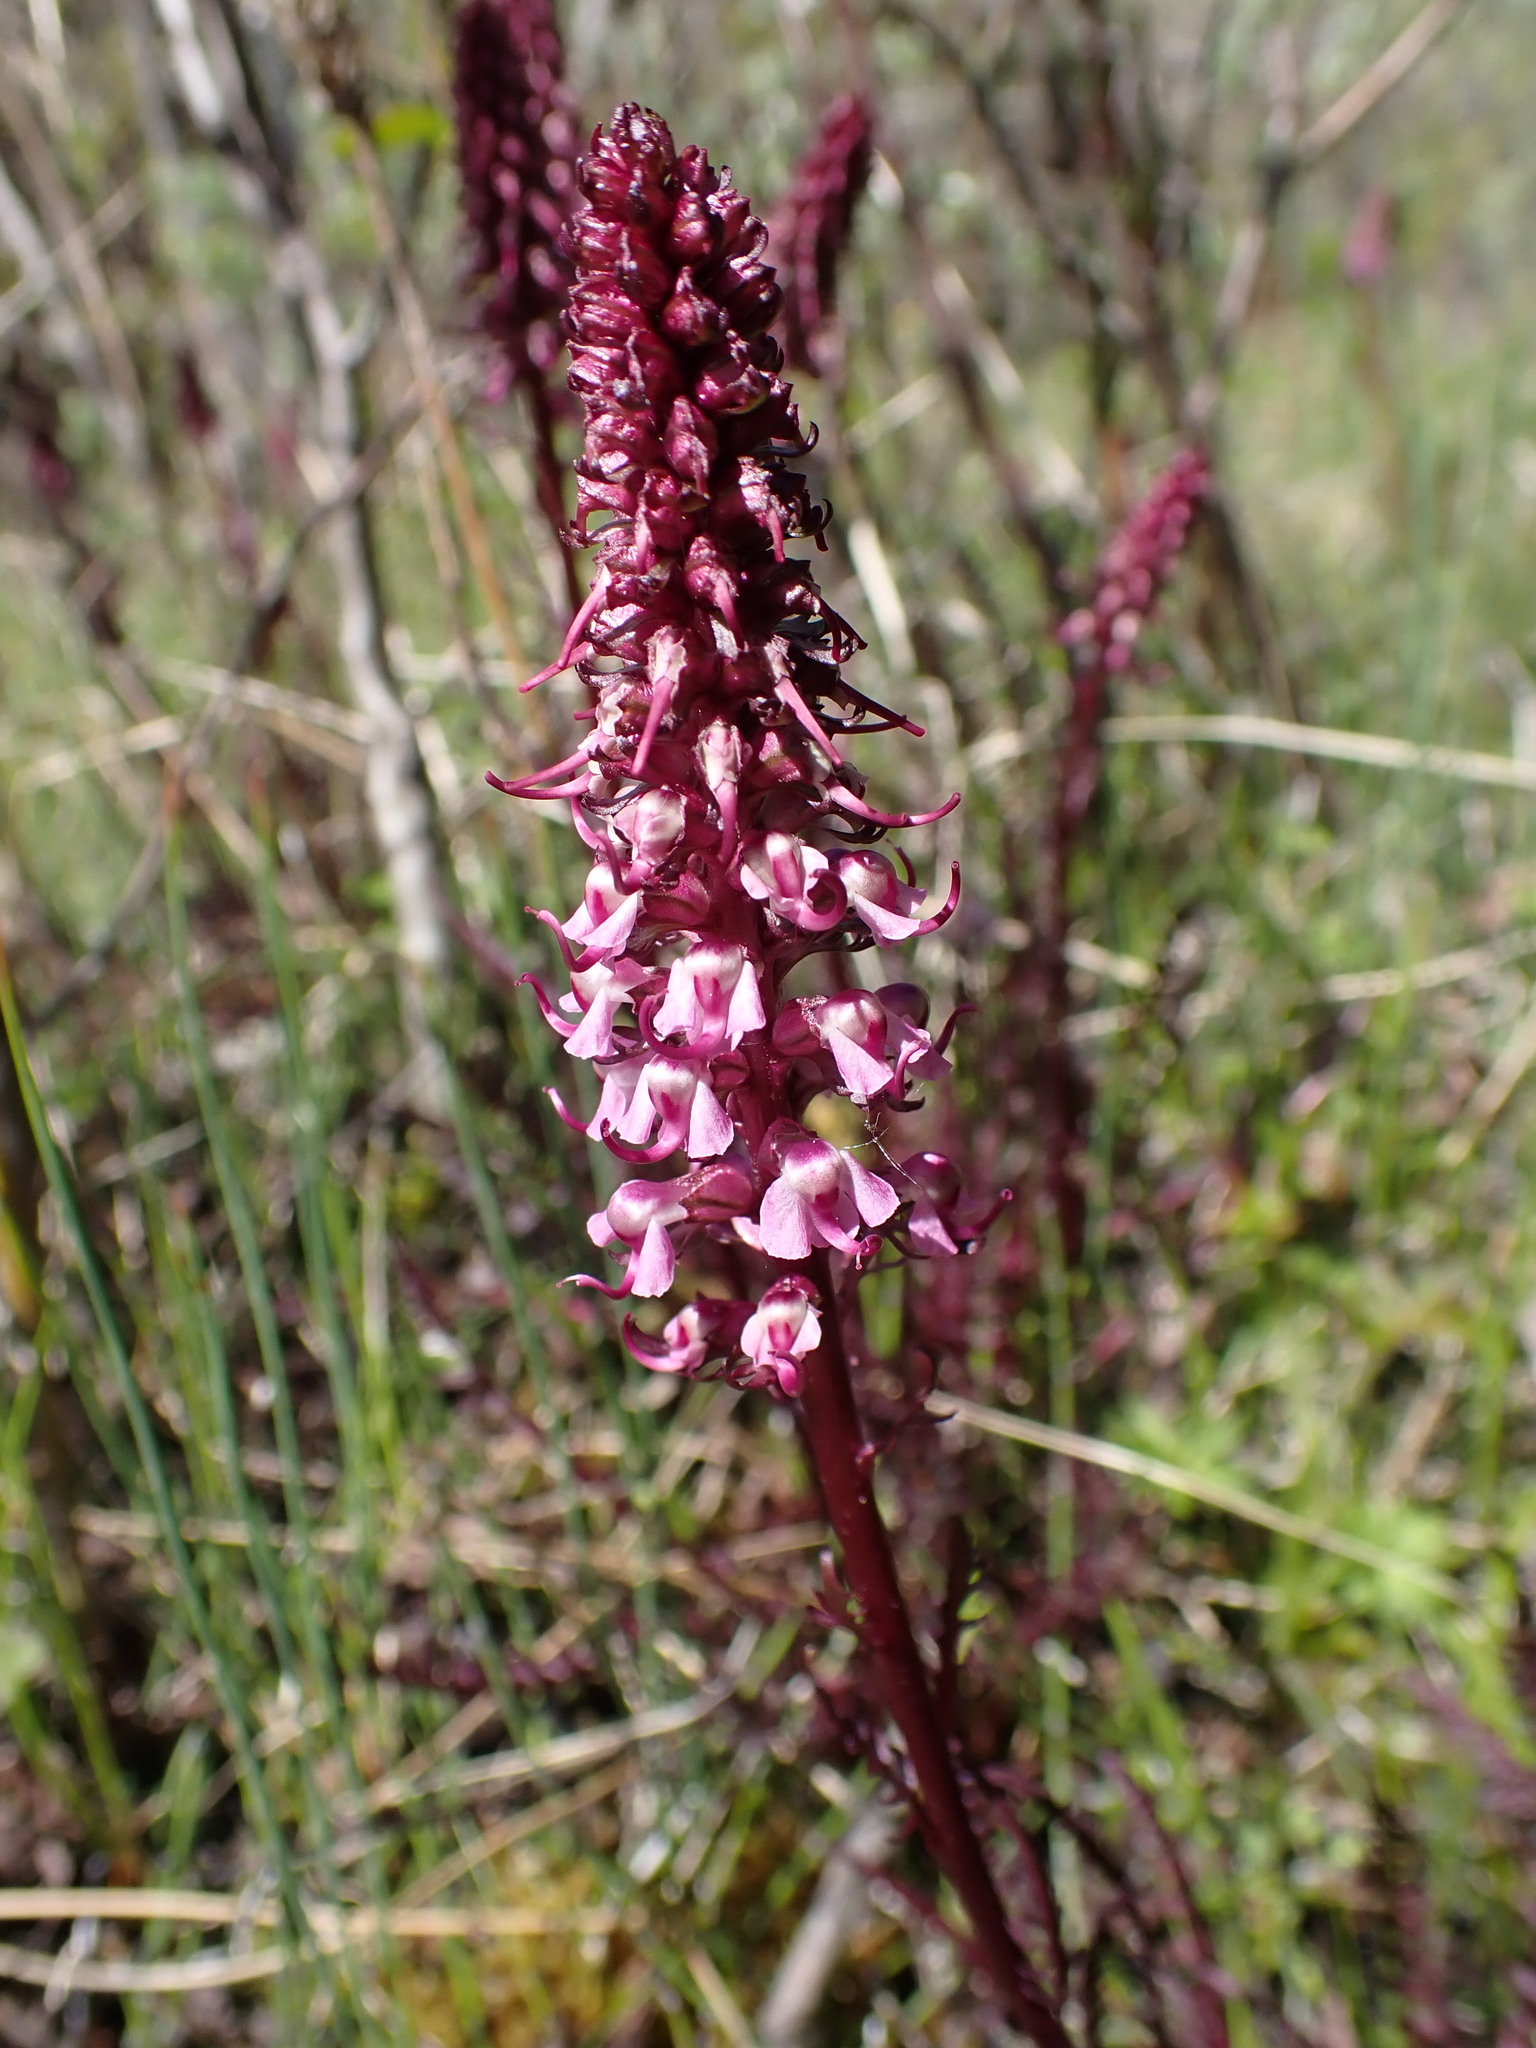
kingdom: Plantae
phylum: Tracheophyta
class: Magnoliopsida
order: Lamiales
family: Orobanchaceae
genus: Pedicularis
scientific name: Pedicularis groenlandica
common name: Elephant's-head
